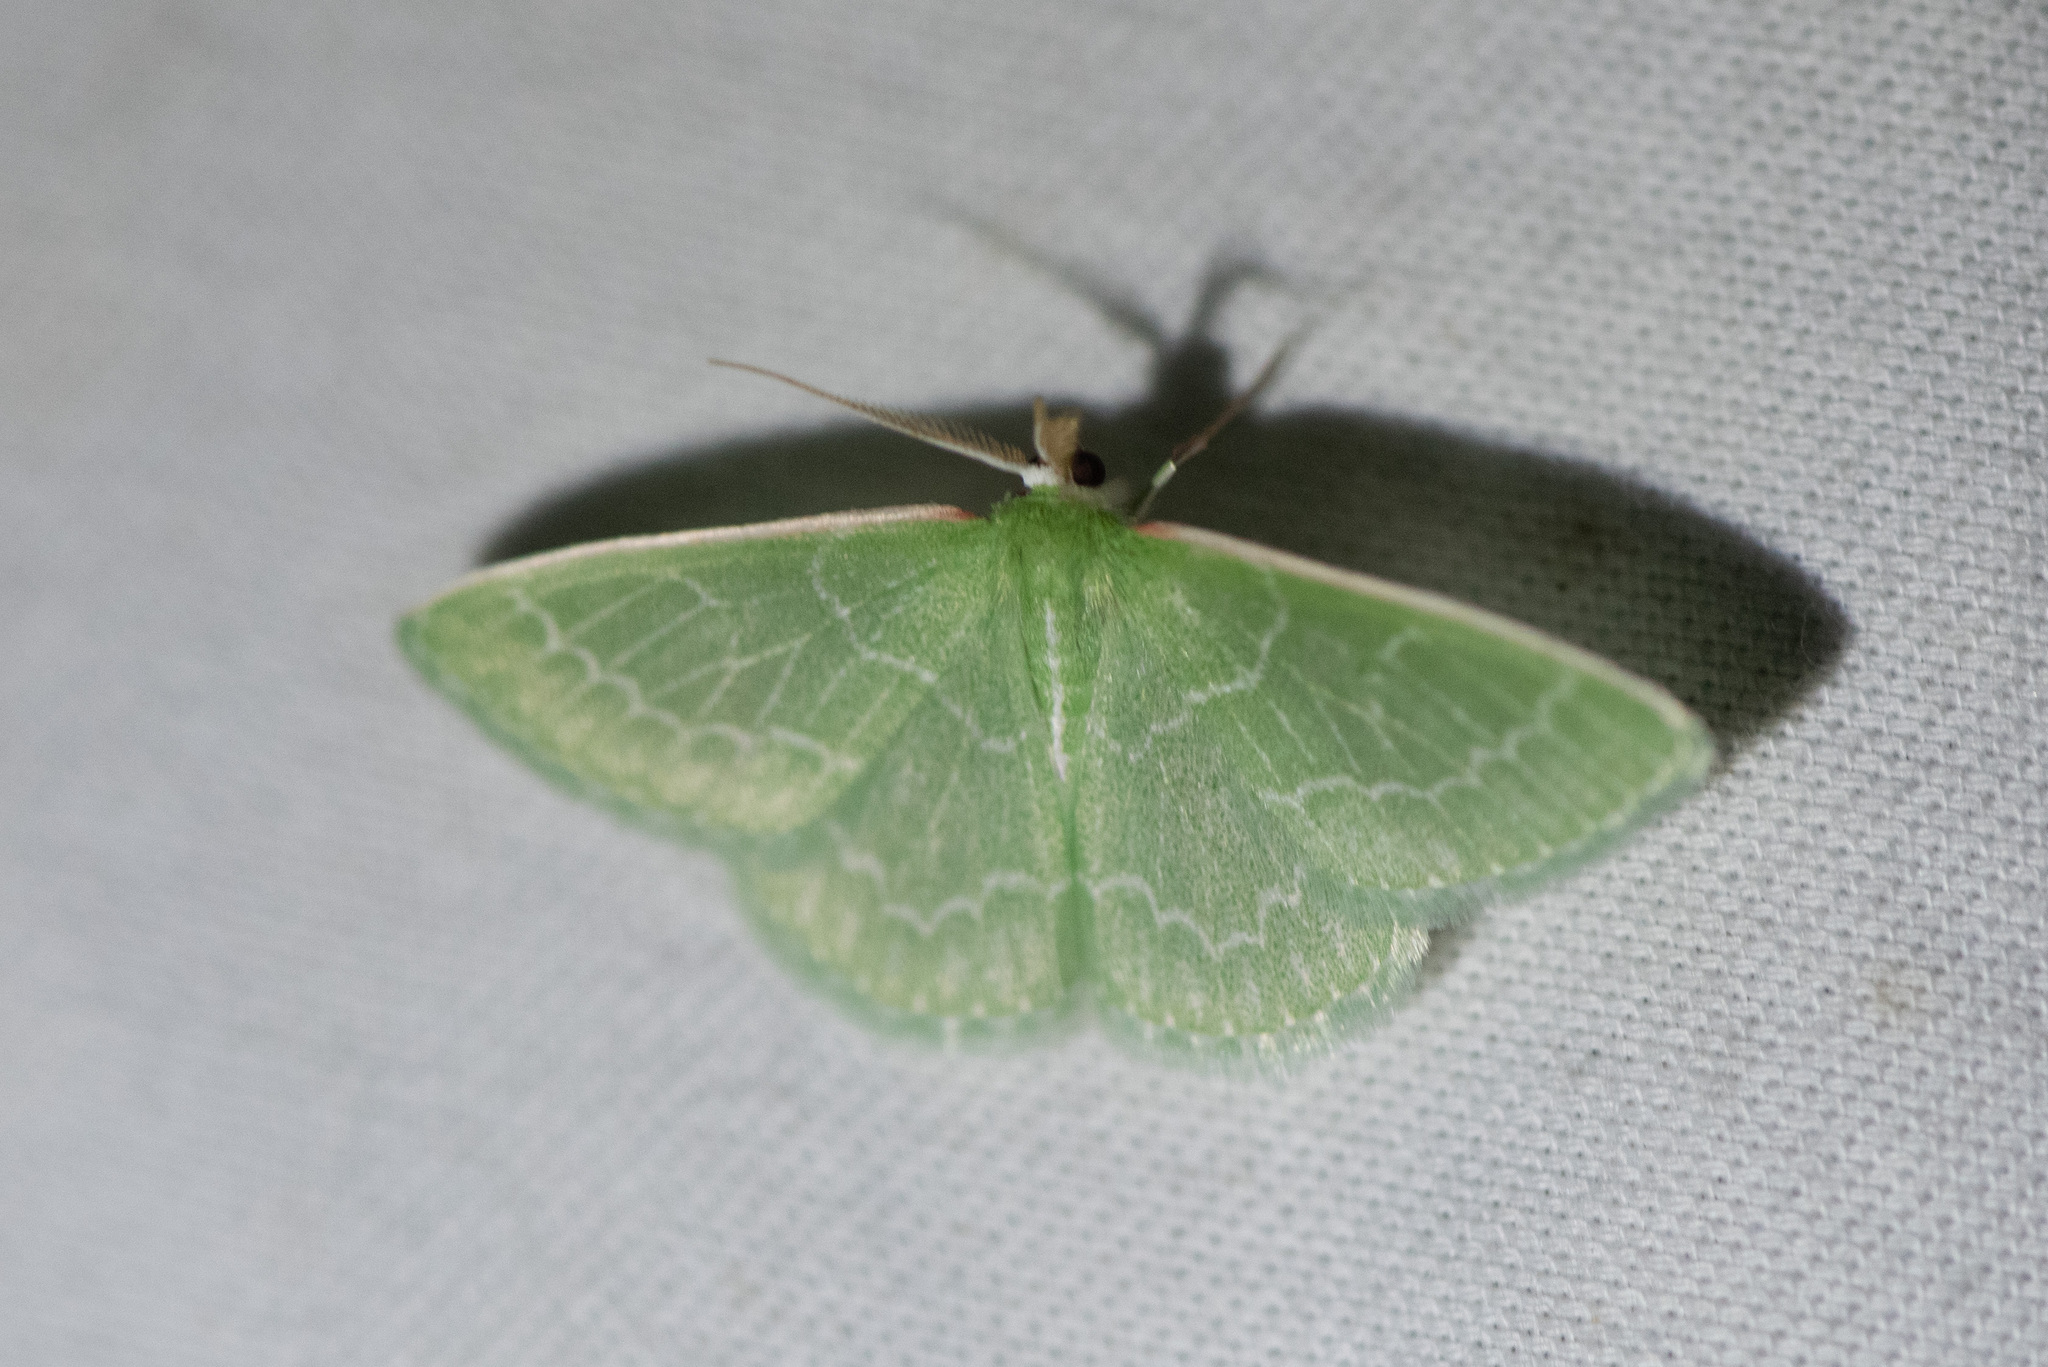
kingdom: Animalia
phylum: Arthropoda
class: Insecta
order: Lepidoptera
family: Geometridae
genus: Synchlora
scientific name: Synchlora aerata
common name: Wavy-lined emerald
